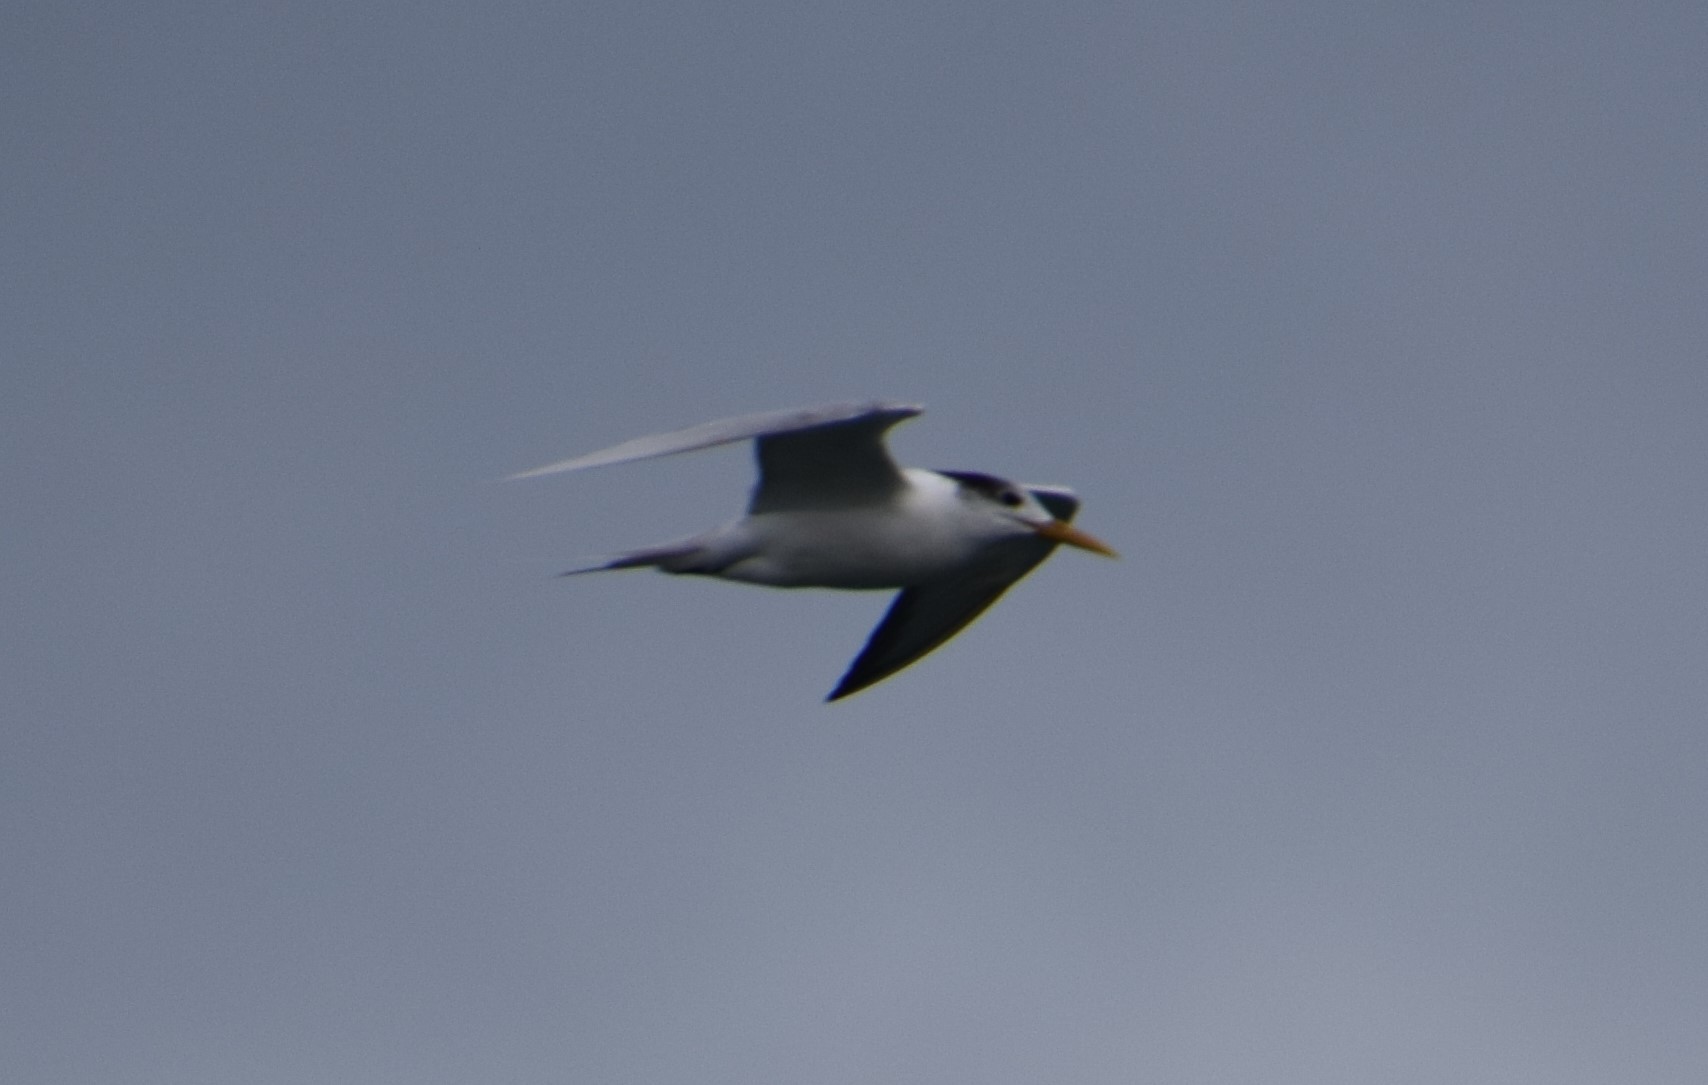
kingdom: Animalia
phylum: Chordata
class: Aves
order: Charadriiformes
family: Laridae
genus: Thalasseus
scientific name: Thalasseus bergii
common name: Greater crested tern
